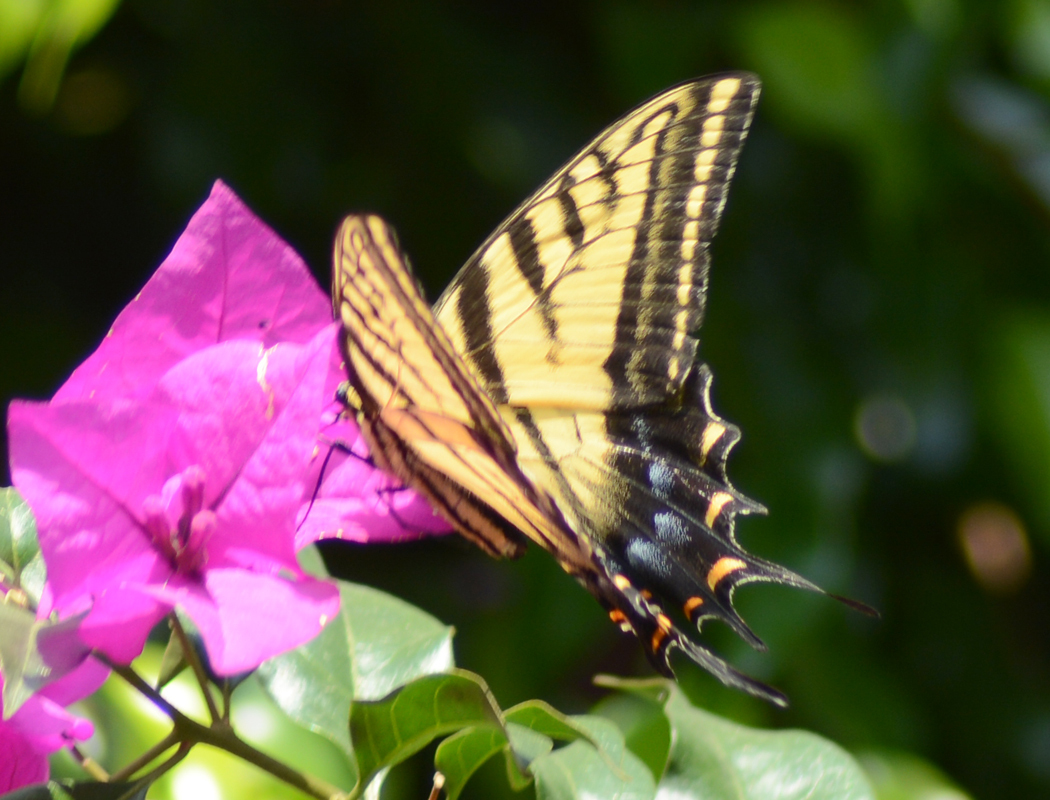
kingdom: Animalia
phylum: Arthropoda
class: Insecta
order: Lepidoptera
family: Papilionidae
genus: Papilio
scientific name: Papilio multicaudata
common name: Two-tailed tiger swallowtail
